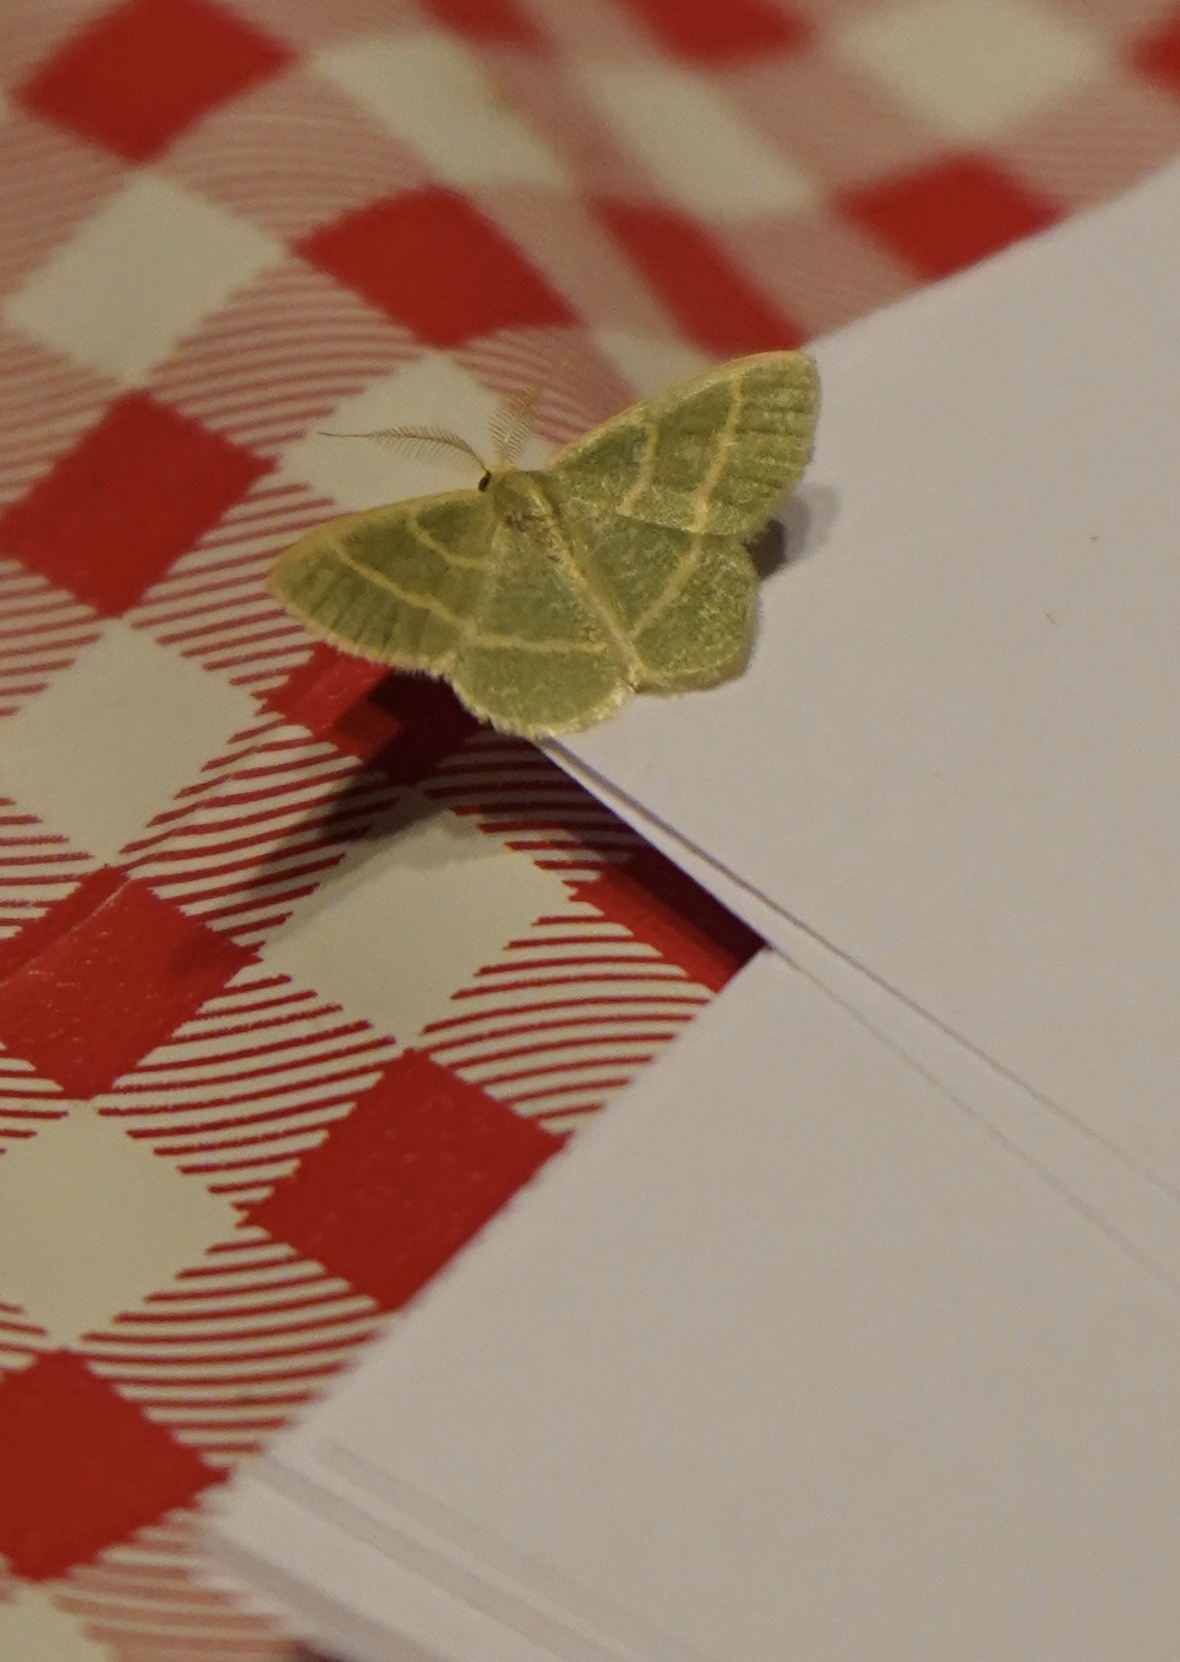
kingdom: Animalia
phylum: Arthropoda
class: Insecta
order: Lepidoptera
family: Geometridae
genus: Chlorochlamys
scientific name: Chlorochlamys chloroleucaria
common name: Blackberry looper
